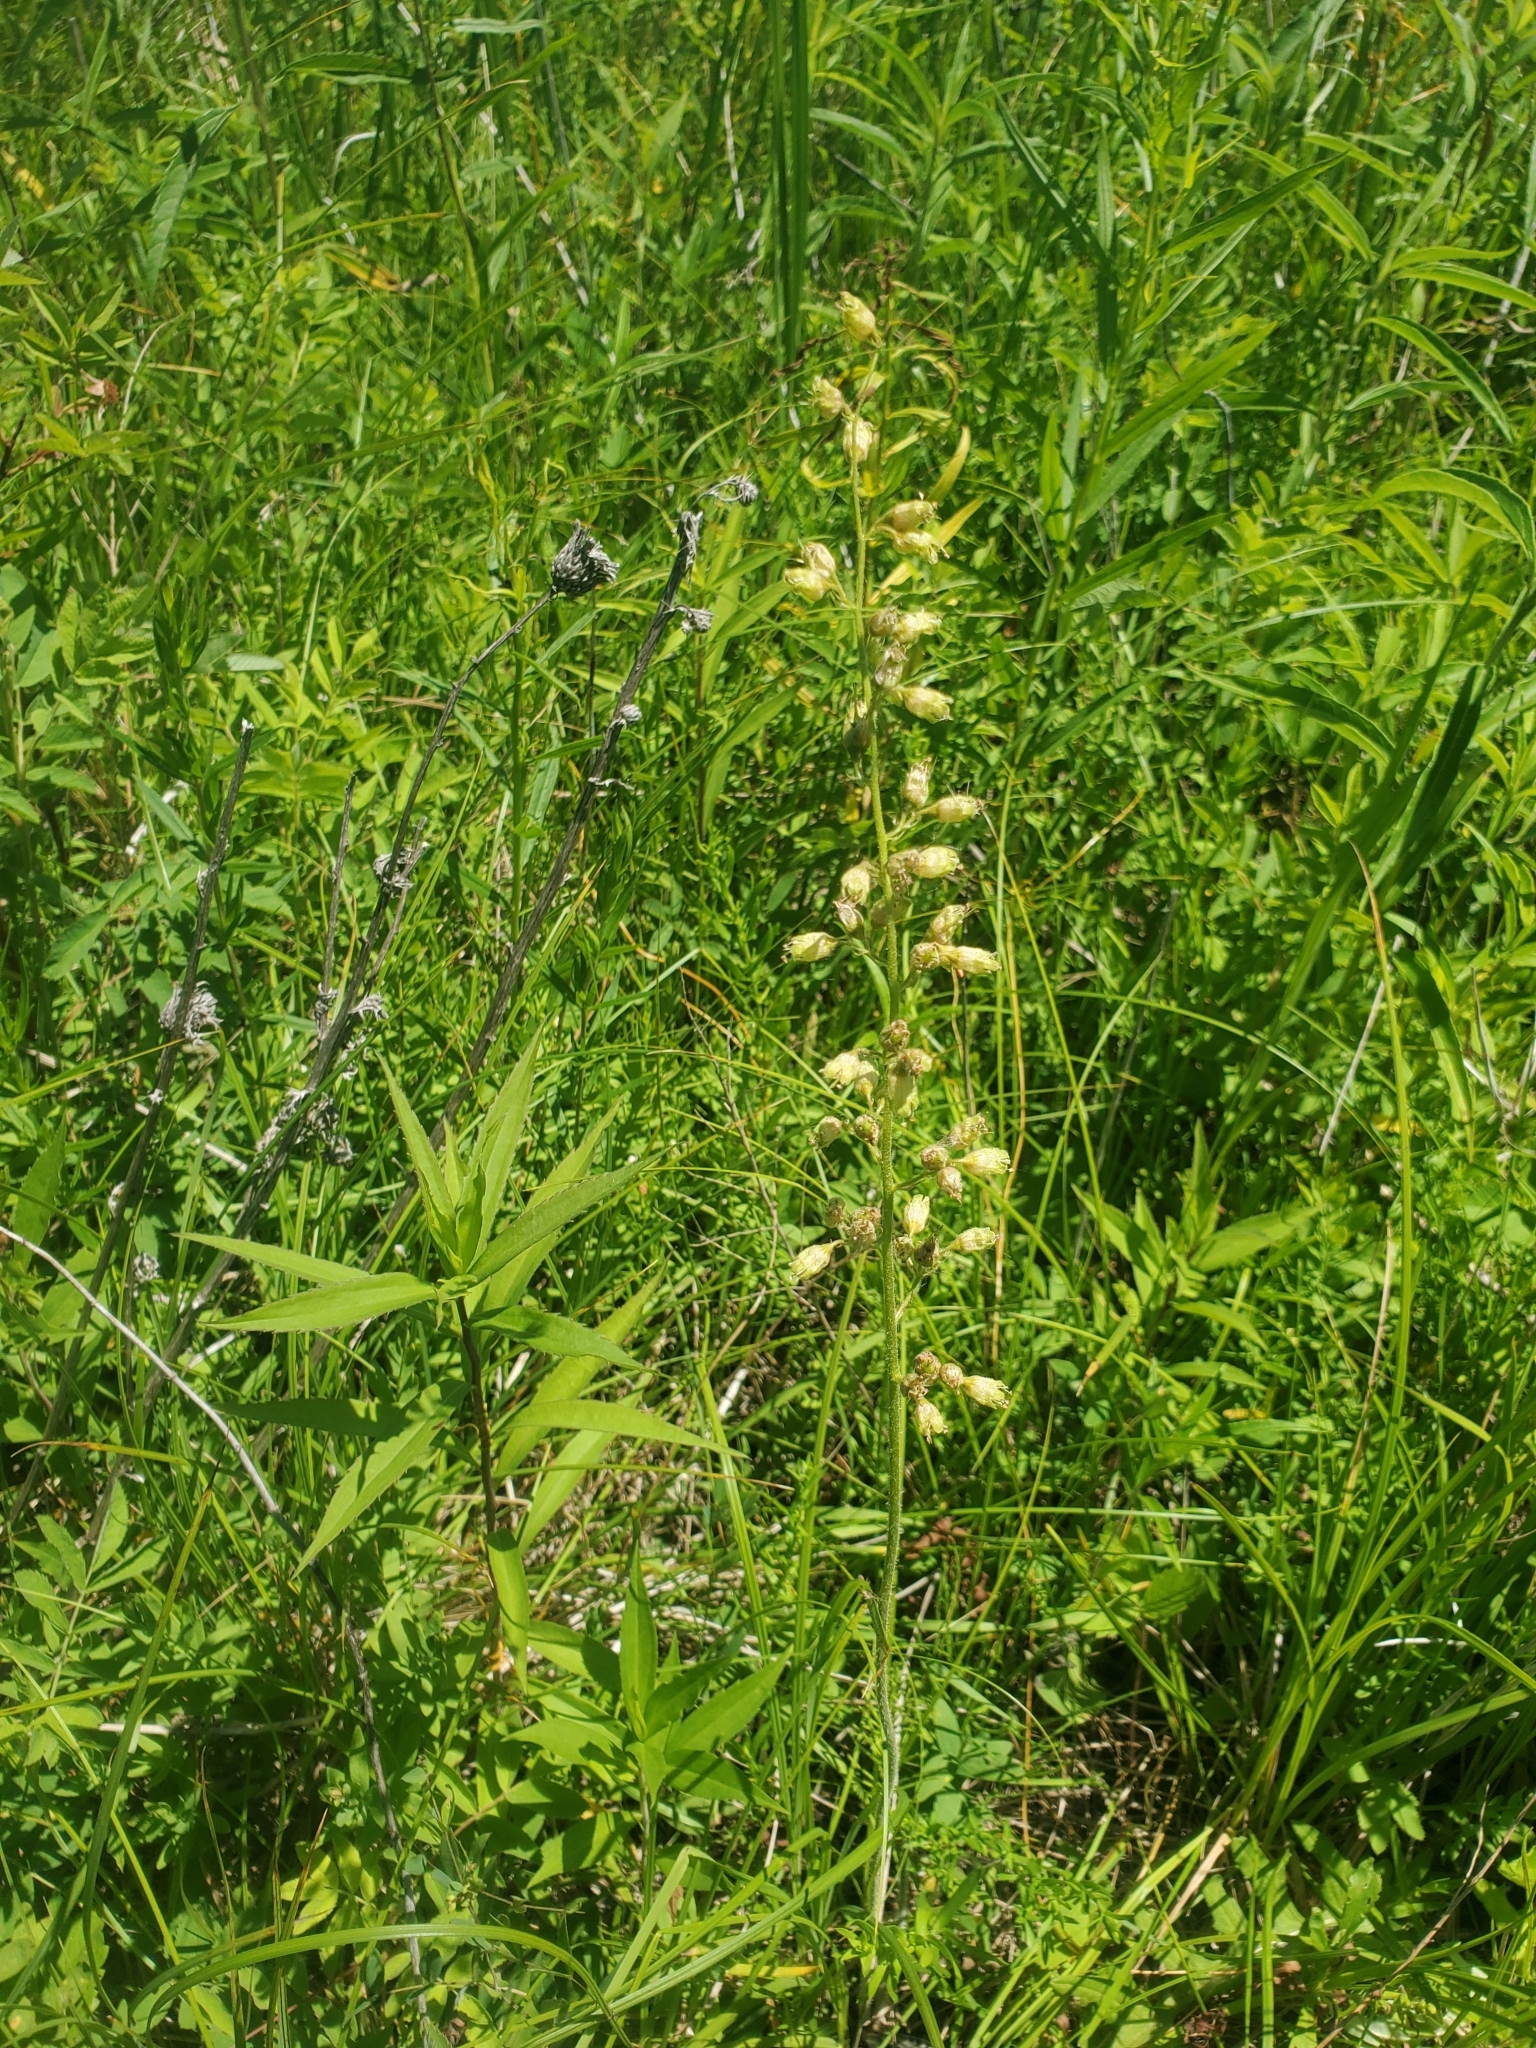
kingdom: Plantae
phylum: Tracheophyta
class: Magnoliopsida
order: Saxifragales
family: Saxifragaceae
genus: Heuchera
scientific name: Heuchera richardsonii
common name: Richardson's alumroot
